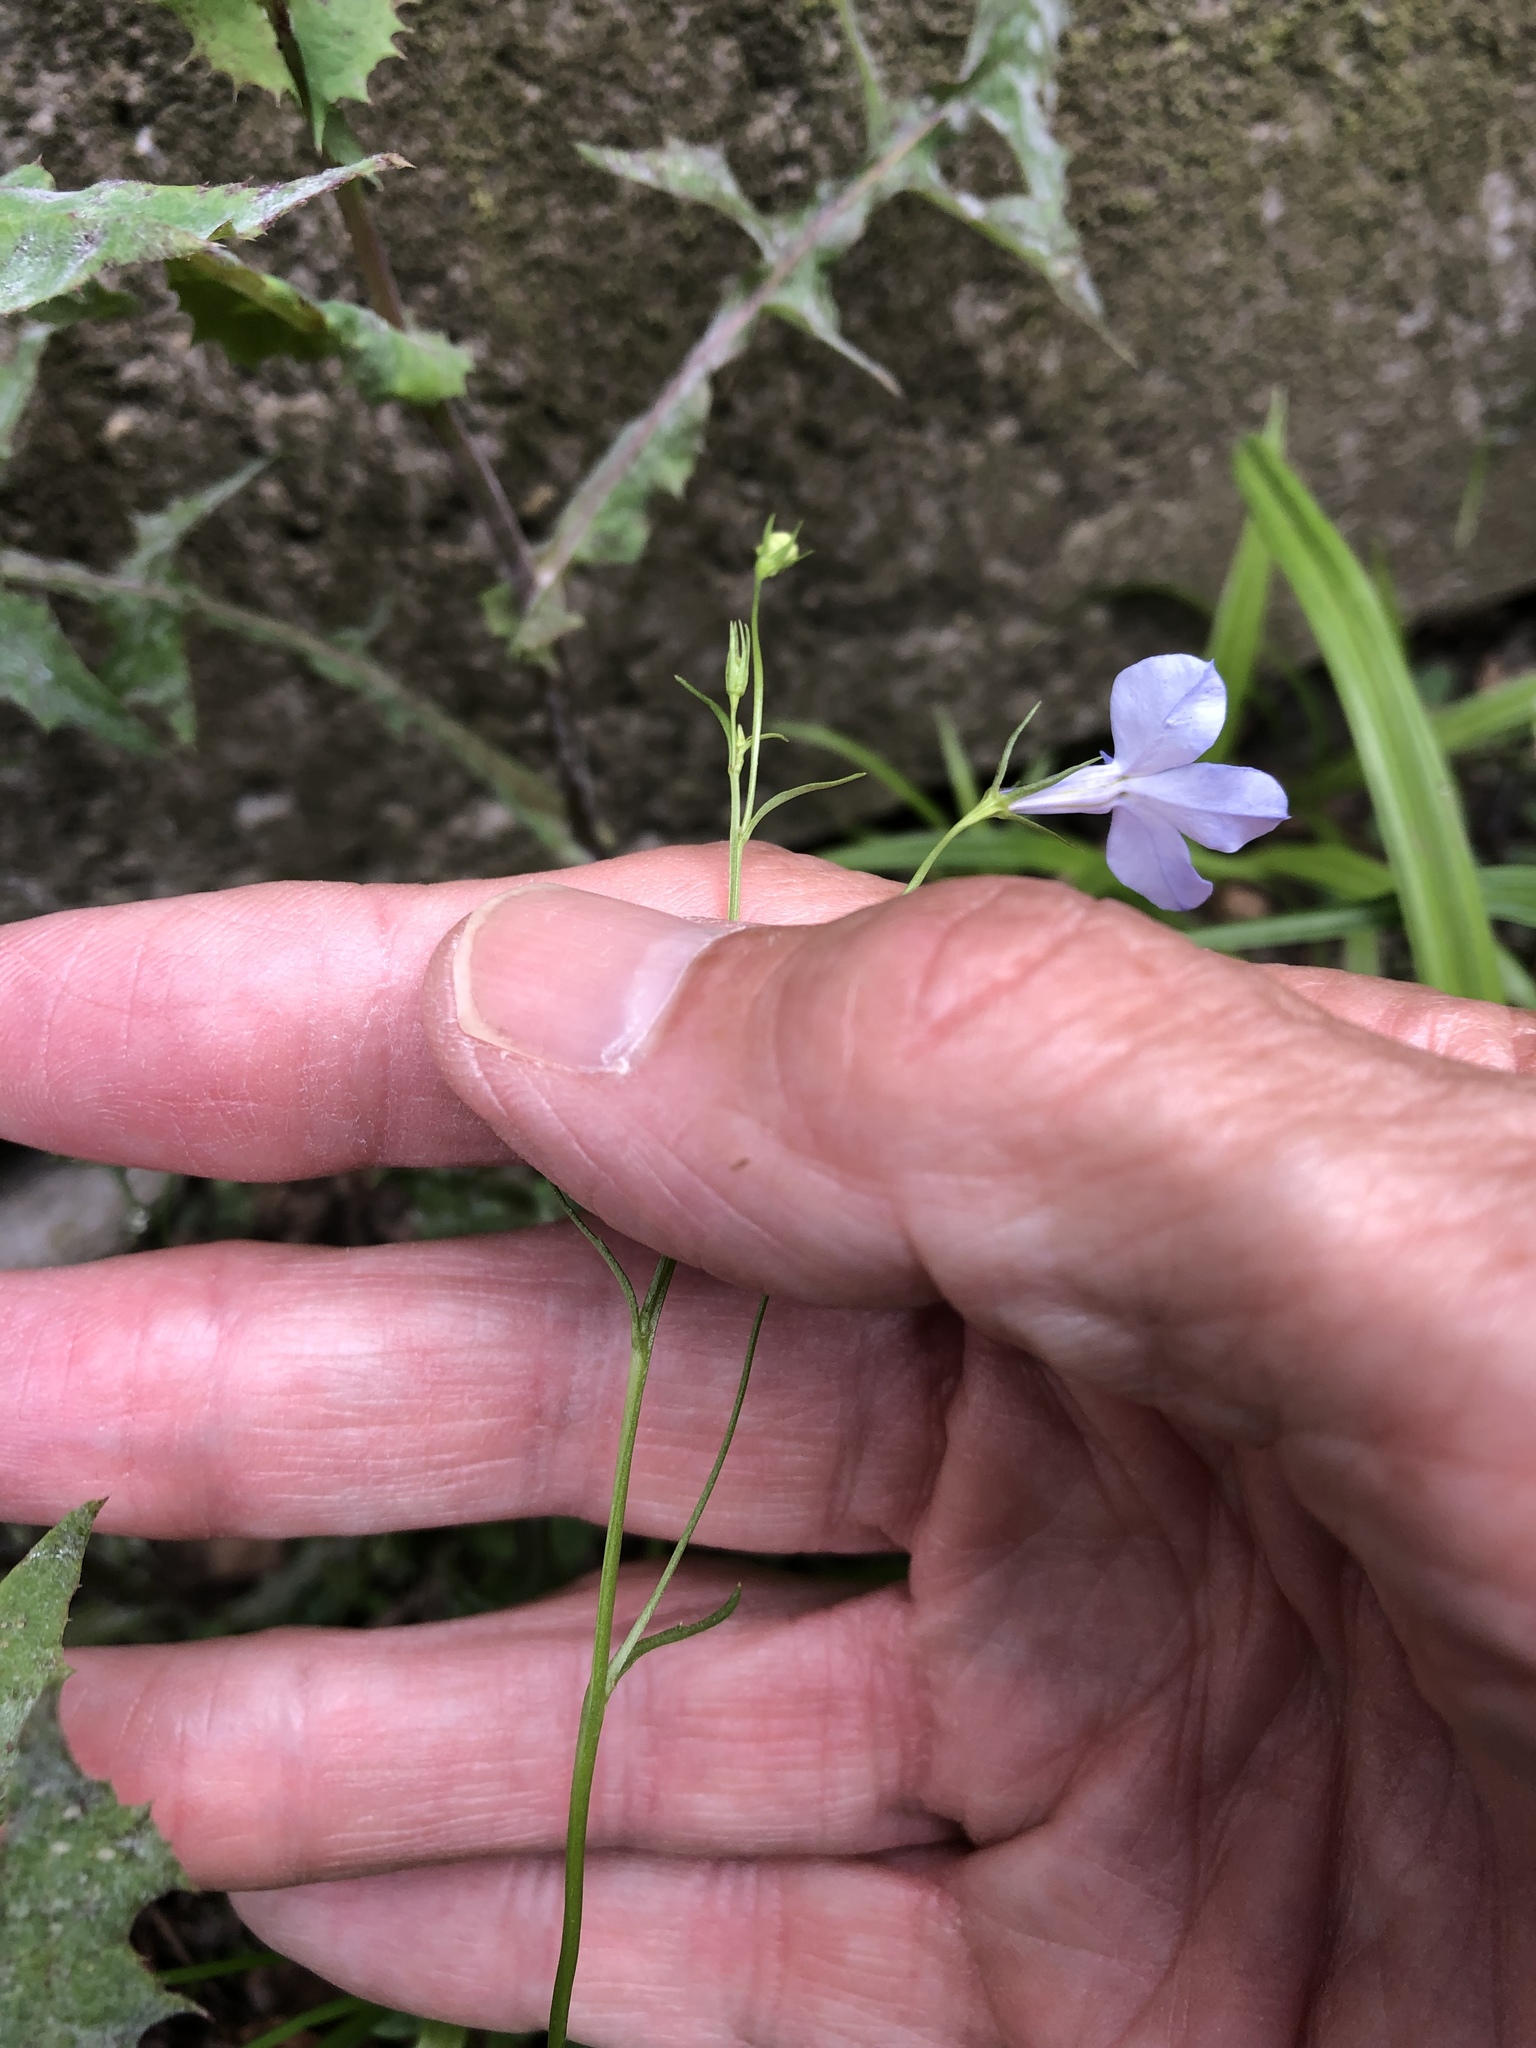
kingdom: Plantae
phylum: Tracheophyta
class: Magnoliopsida
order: Asterales
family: Campanulaceae
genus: Lobelia
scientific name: Lobelia erinus
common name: Edging lobelia
